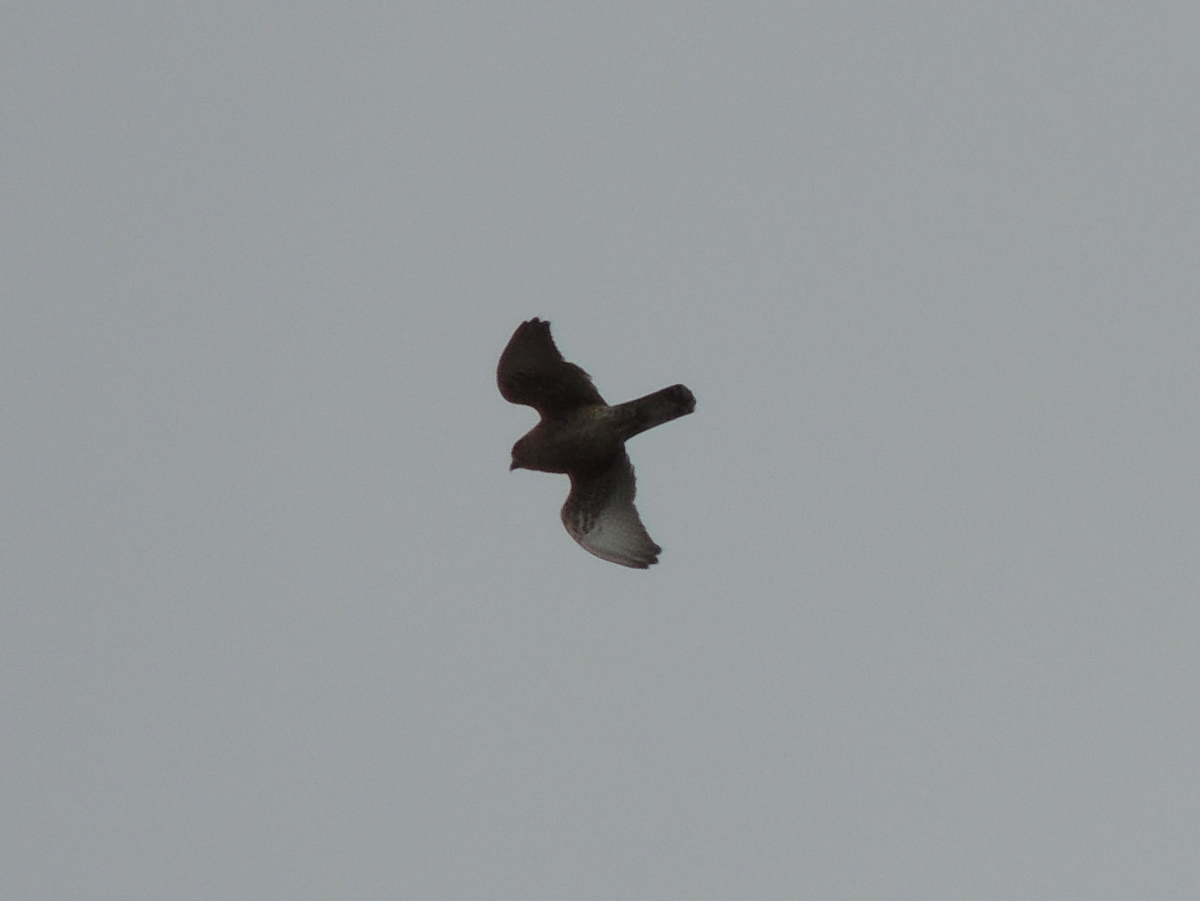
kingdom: Animalia
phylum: Chordata
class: Aves
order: Falconiformes
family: Falconidae
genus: Falco
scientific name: Falco newtoni
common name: Malagasy kestrel
